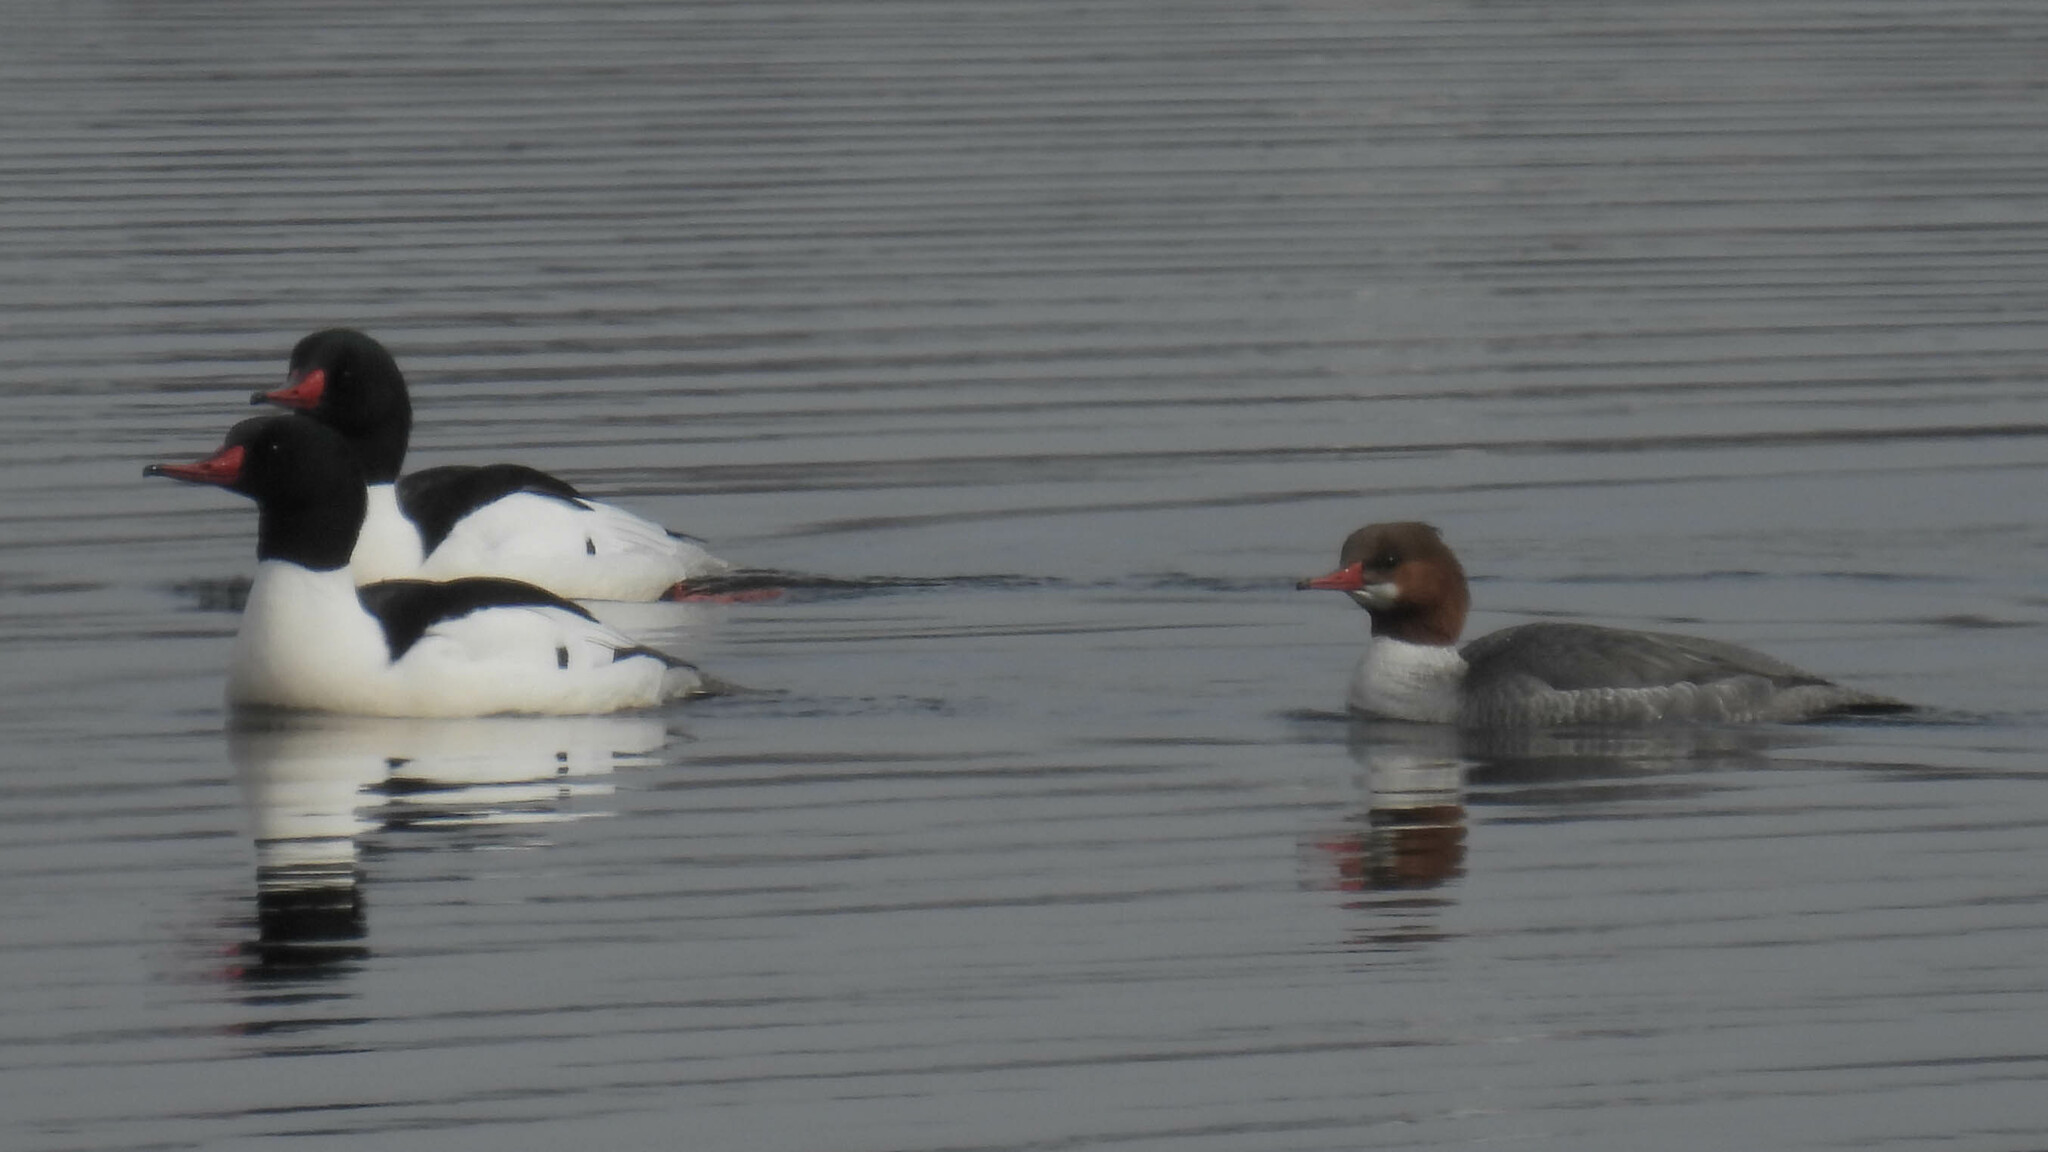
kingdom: Animalia
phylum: Chordata
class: Aves
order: Anseriformes
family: Anatidae
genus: Mergus
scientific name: Mergus merganser
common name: Common merganser
